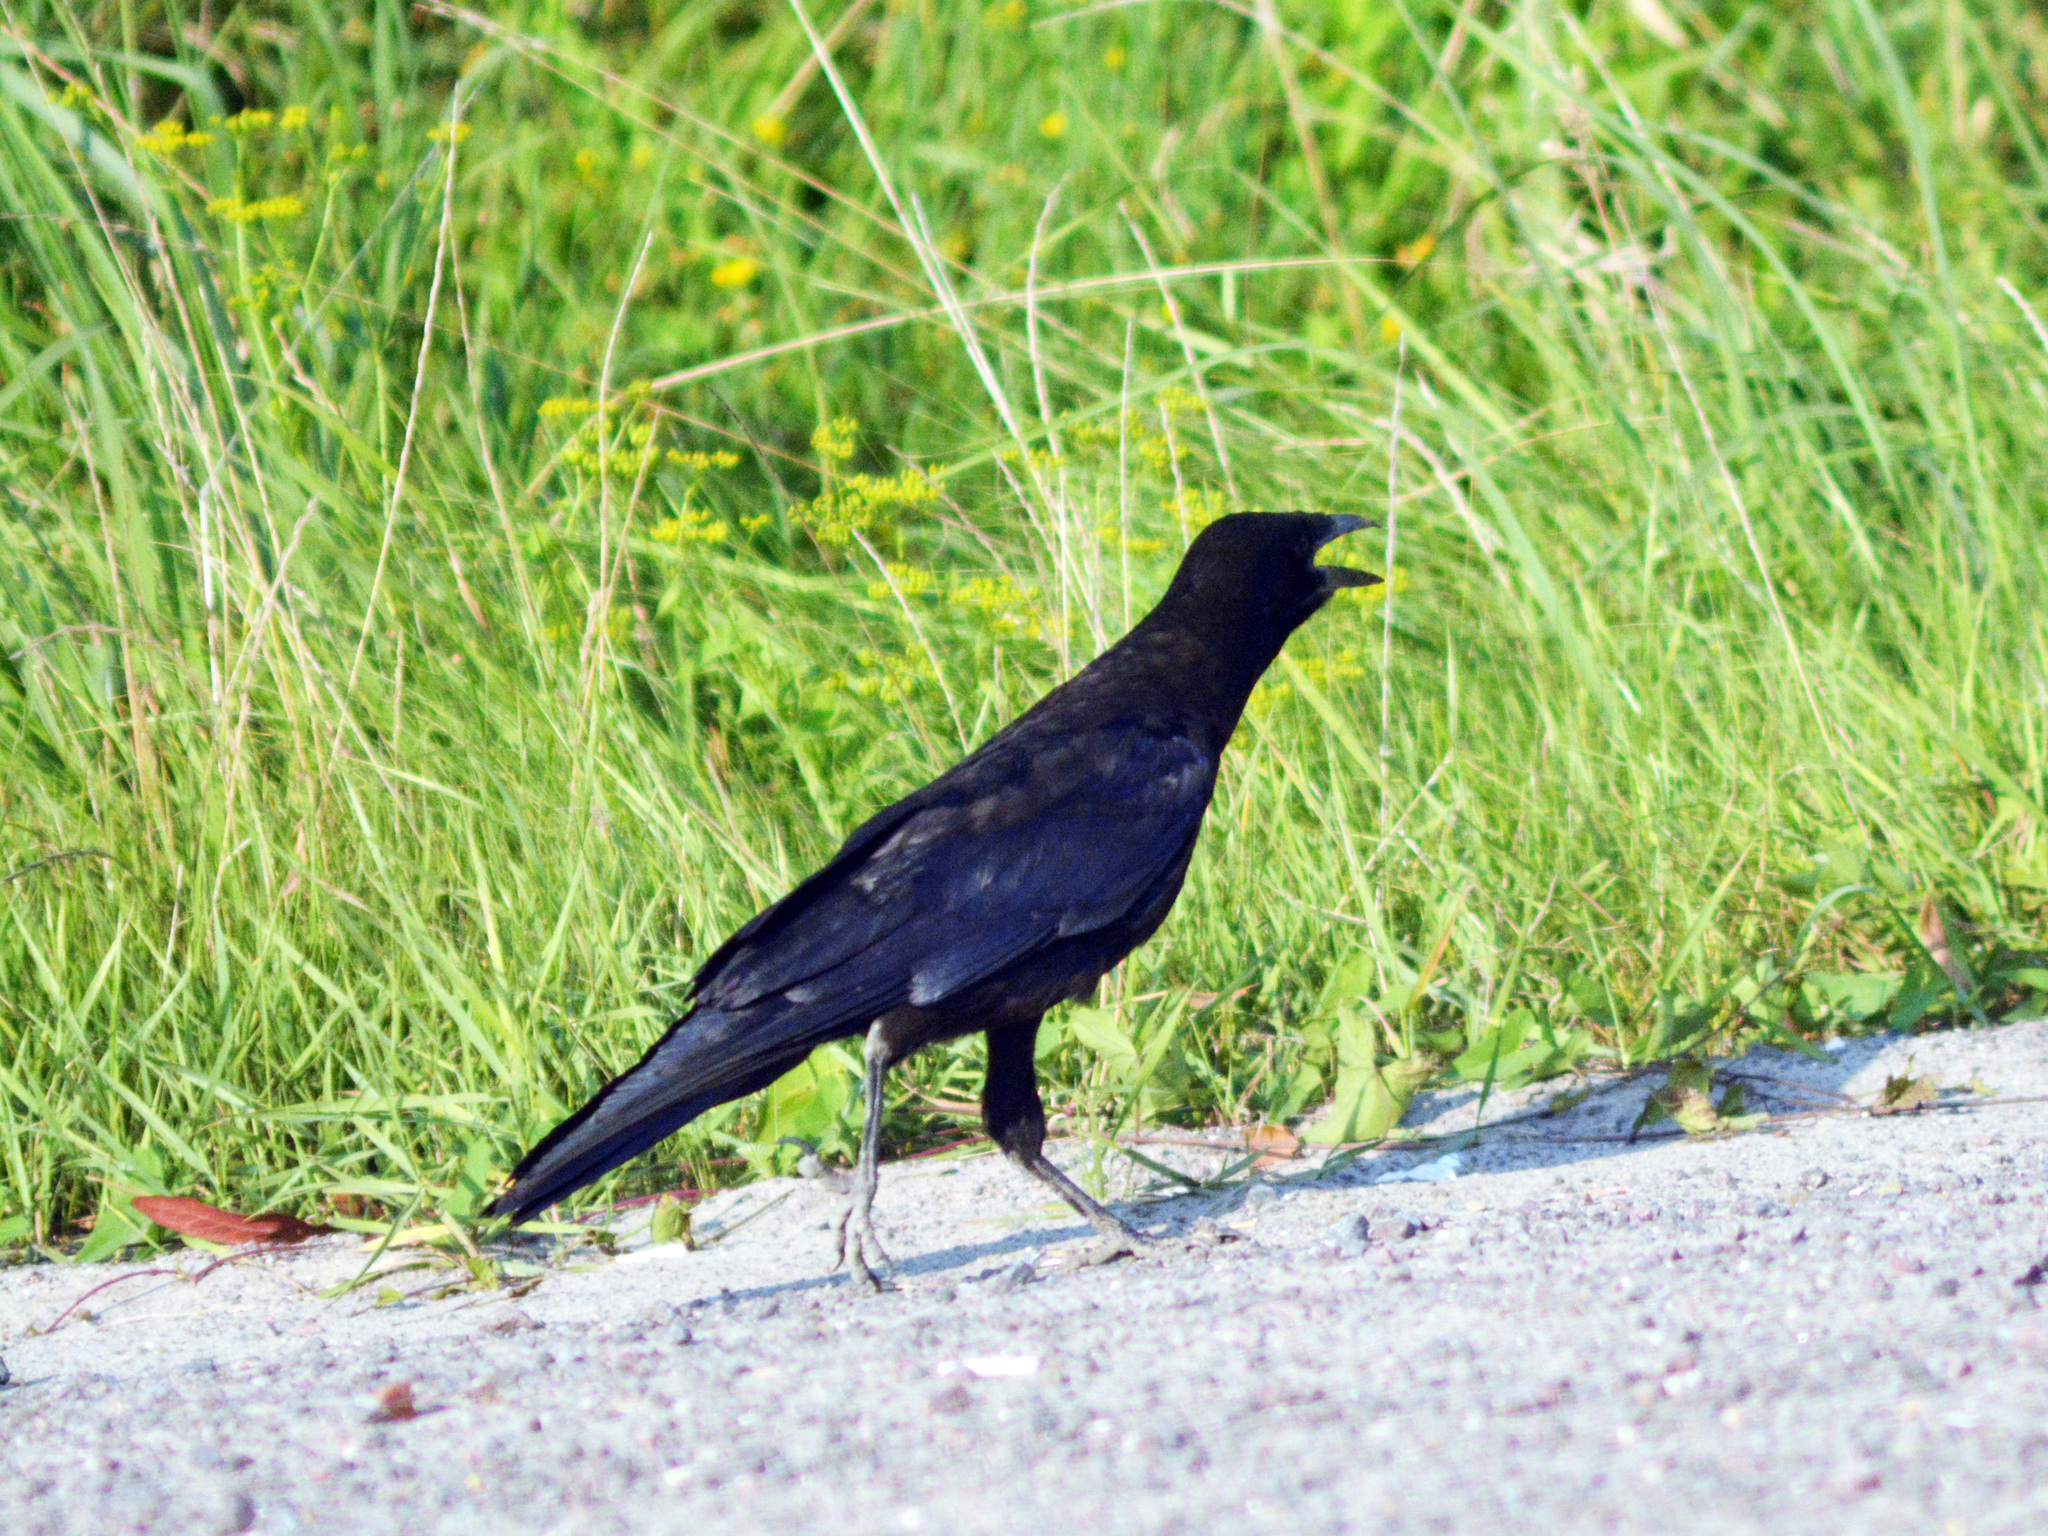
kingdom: Animalia
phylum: Chordata
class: Aves
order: Passeriformes
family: Corvidae
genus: Corvus
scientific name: Corvus frugilegus
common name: Rook
